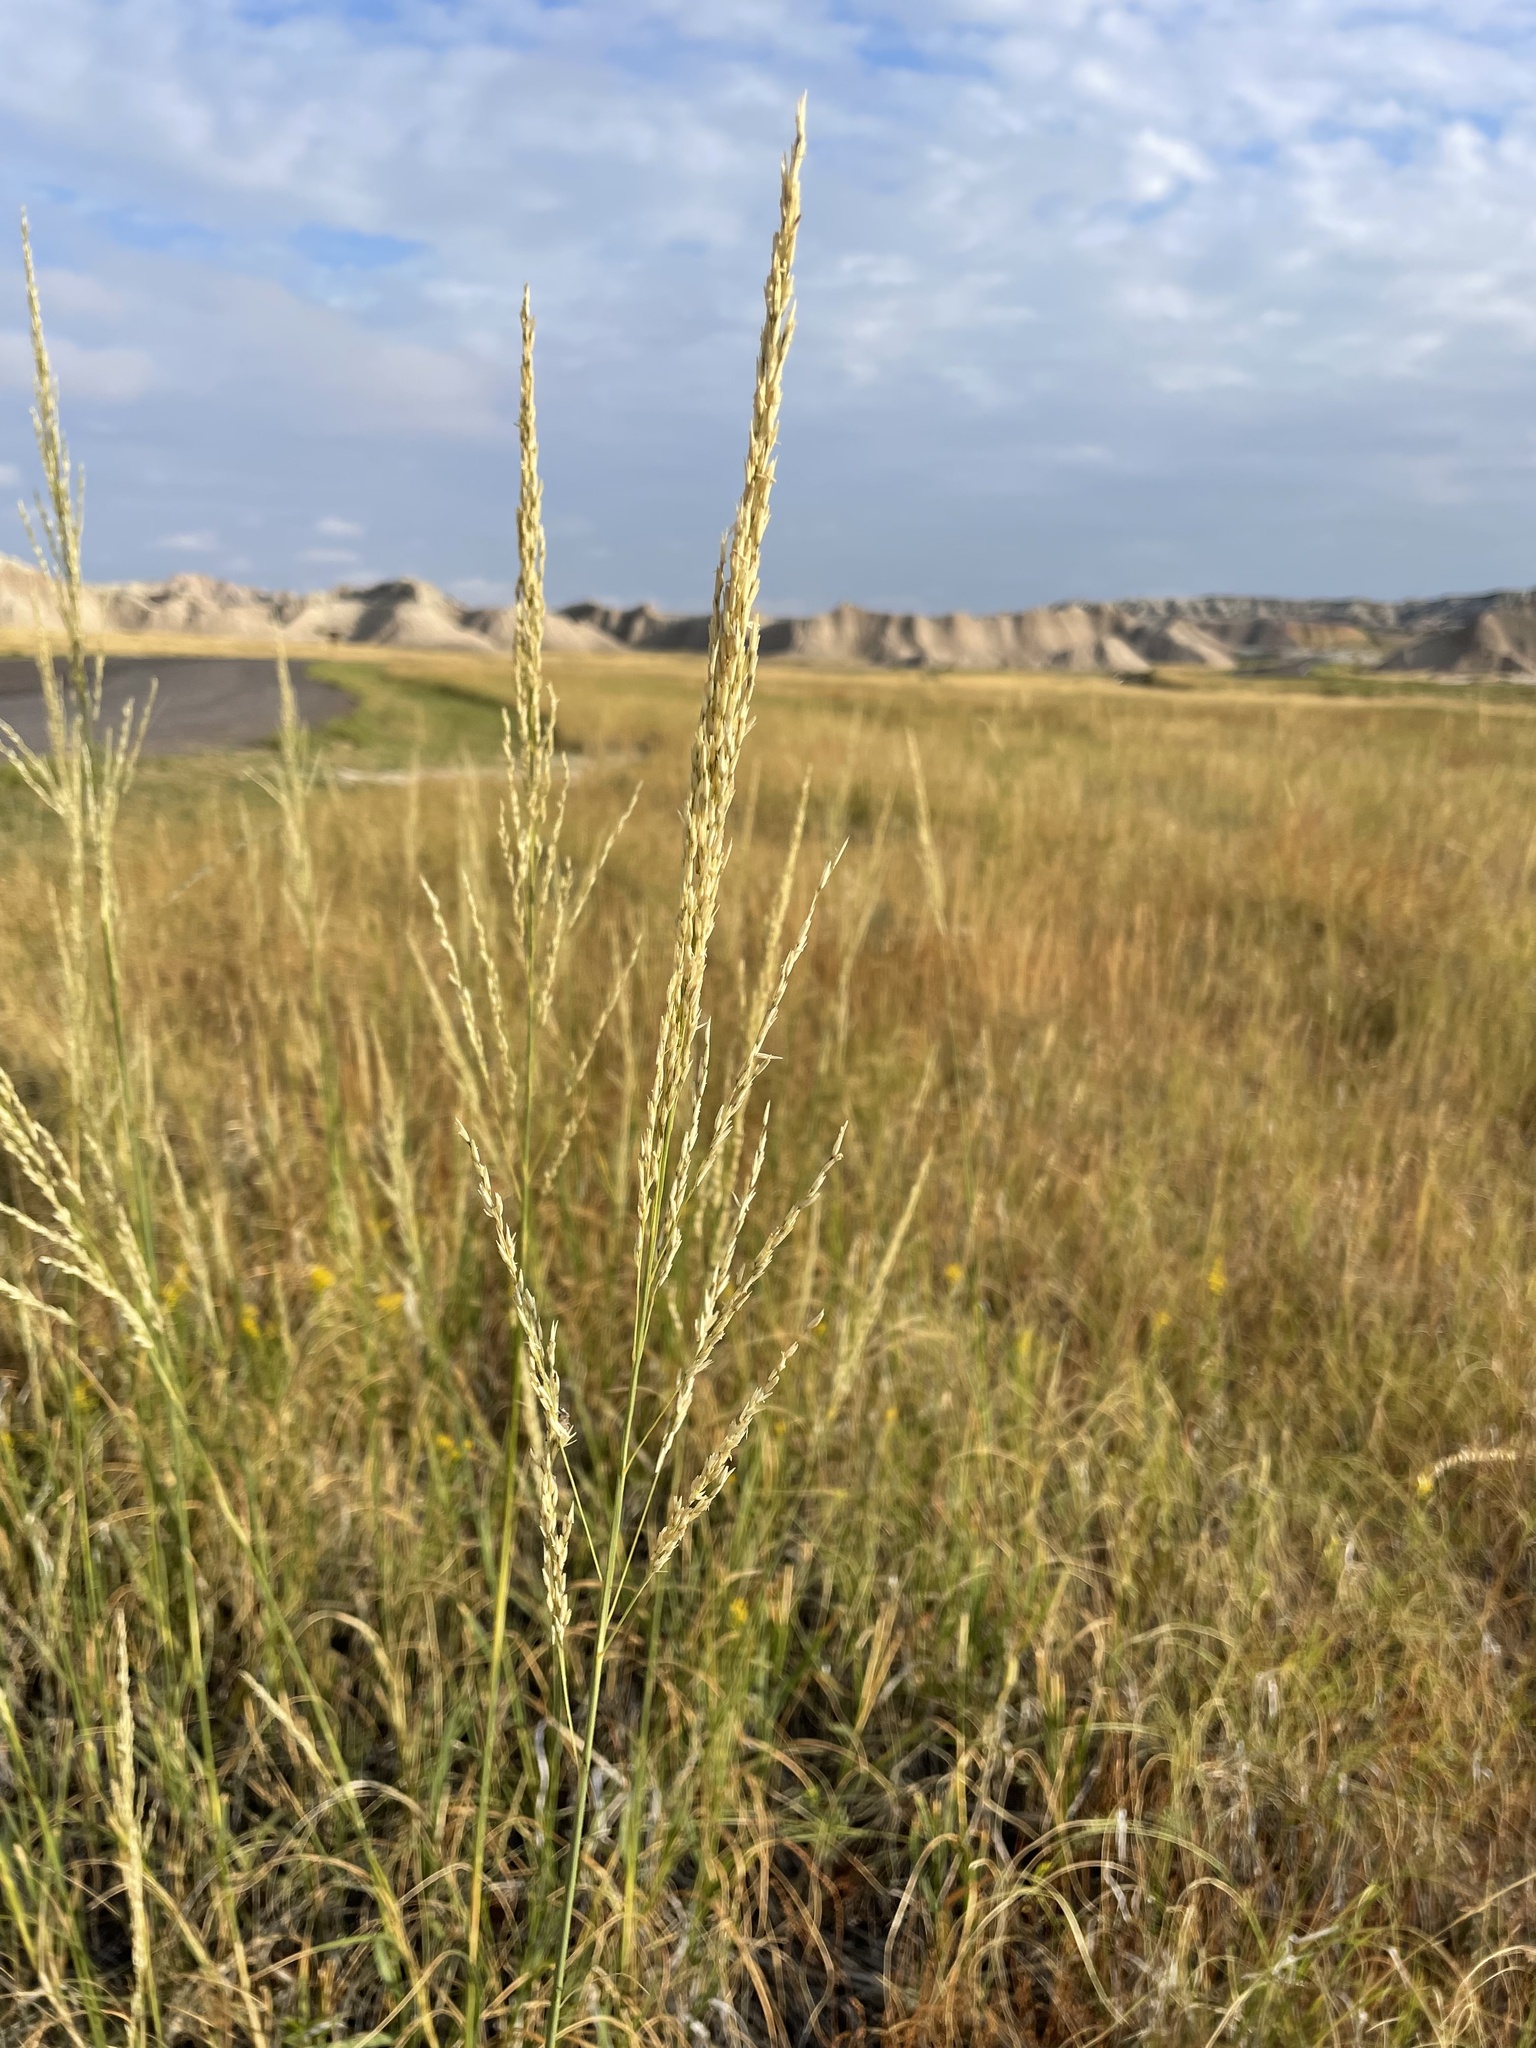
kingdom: Plantae
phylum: Tracheophyta
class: Liliopsida
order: Poales
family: Poaceae
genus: Sporobolus
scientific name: Sporobolus rigidus
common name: Prairie sandreed
